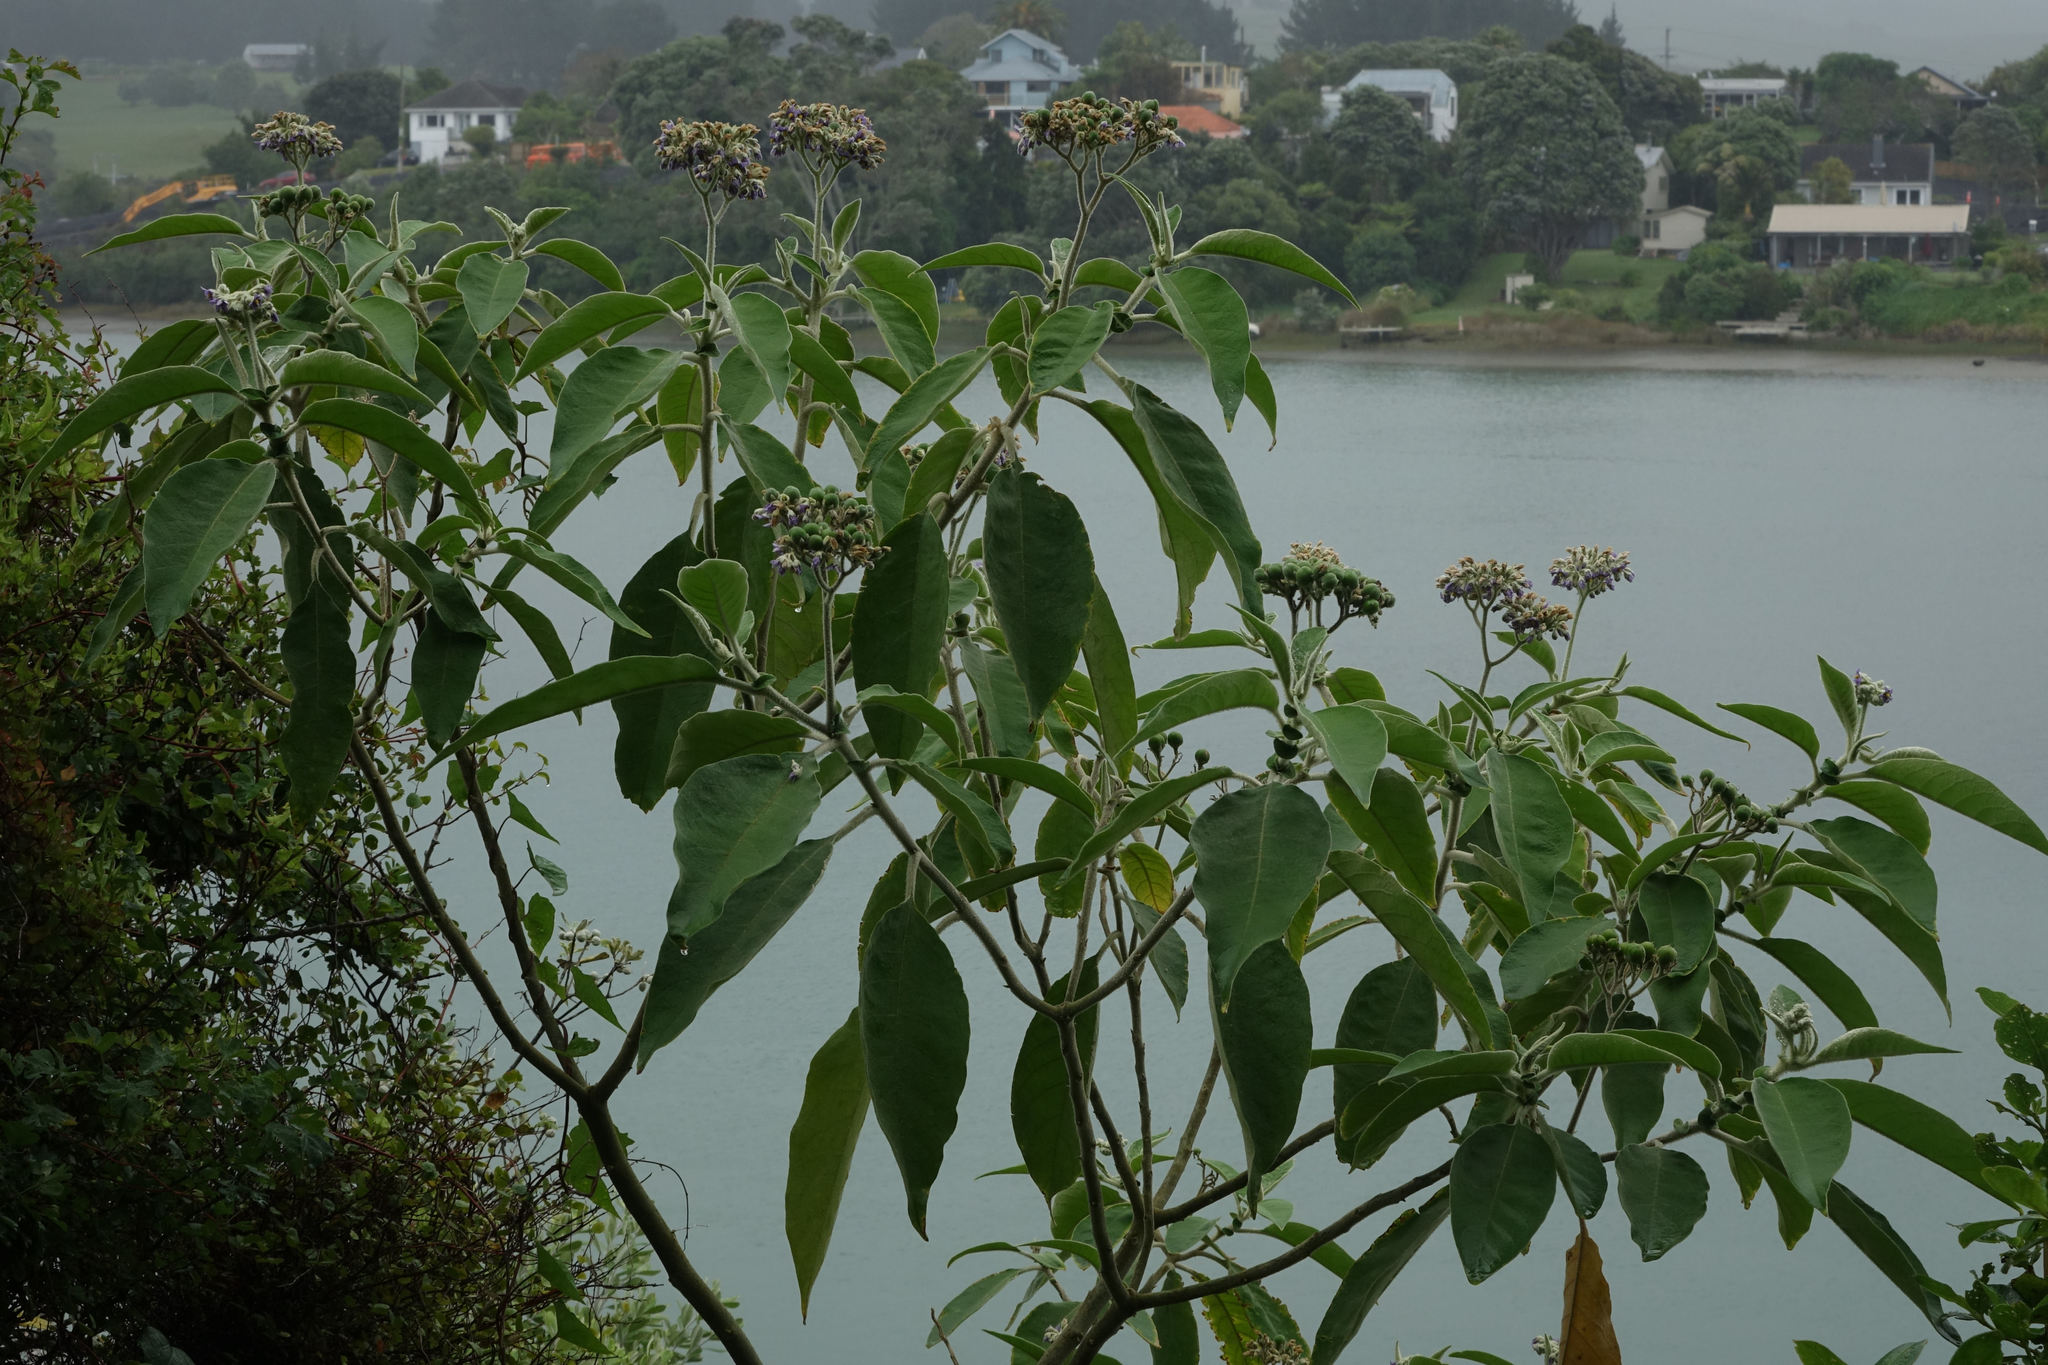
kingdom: Plantae
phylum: Tracheophyta
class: Magnoliopsida
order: Solanales
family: Solanaceae
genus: Solanum
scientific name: Solanum mauritianum
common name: Earleaf nightshade
